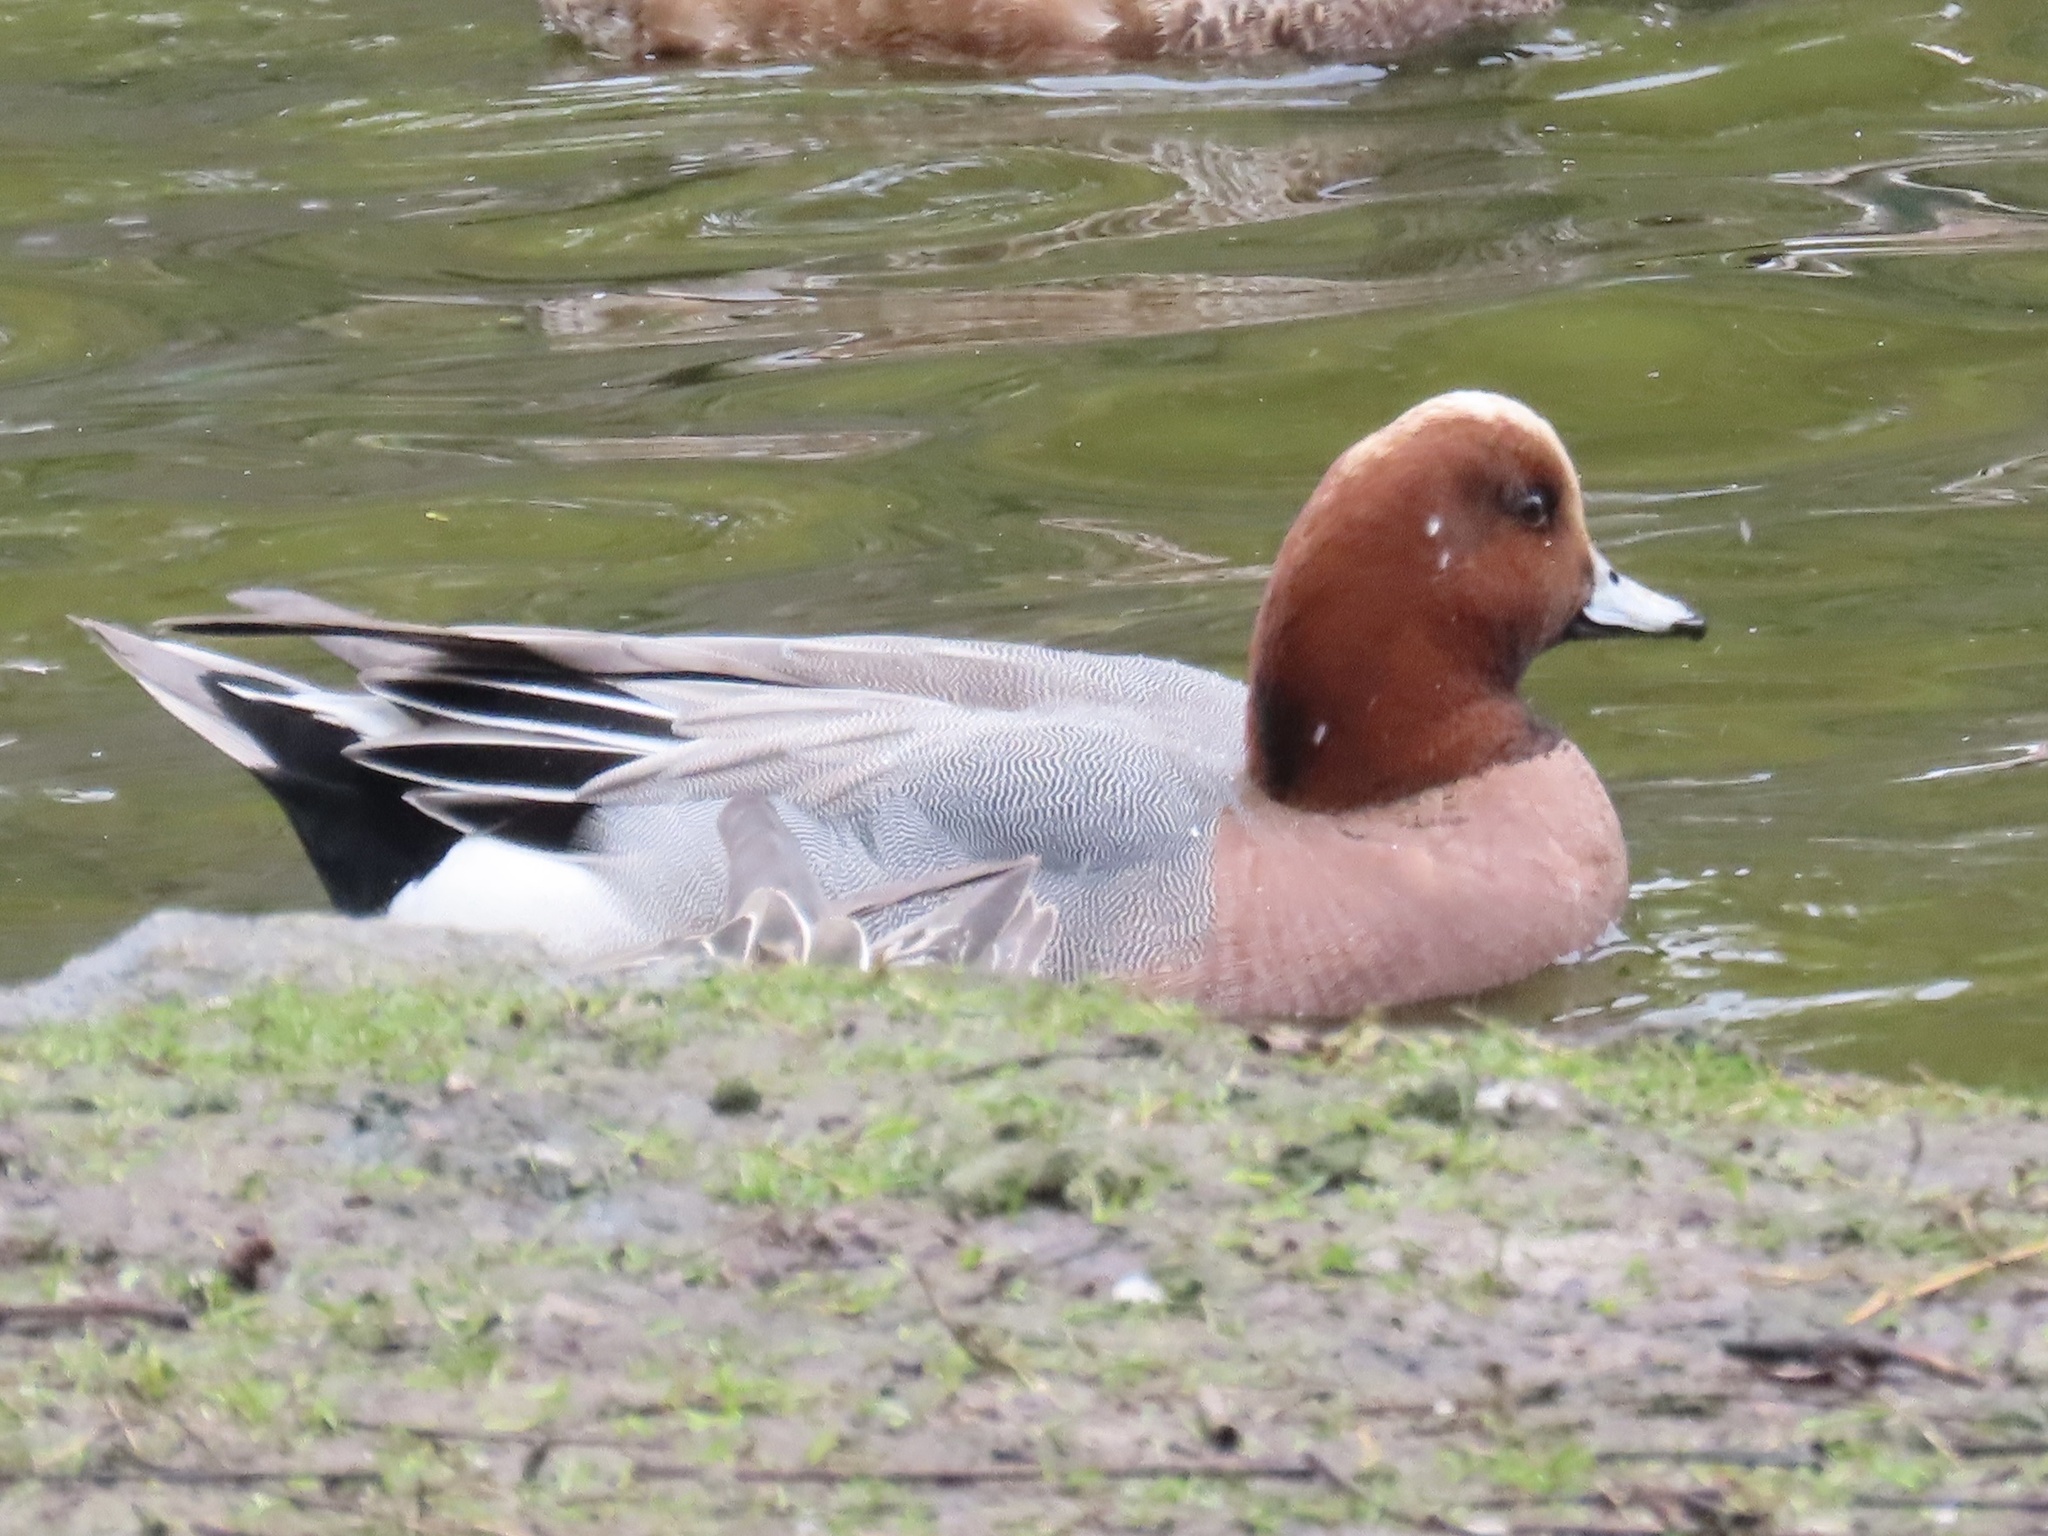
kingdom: Animalia
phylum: Chordata
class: Aves
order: Anseriformes
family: Anatidae
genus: Mareca
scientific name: Mareca penelope
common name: Eurasian wigeon
